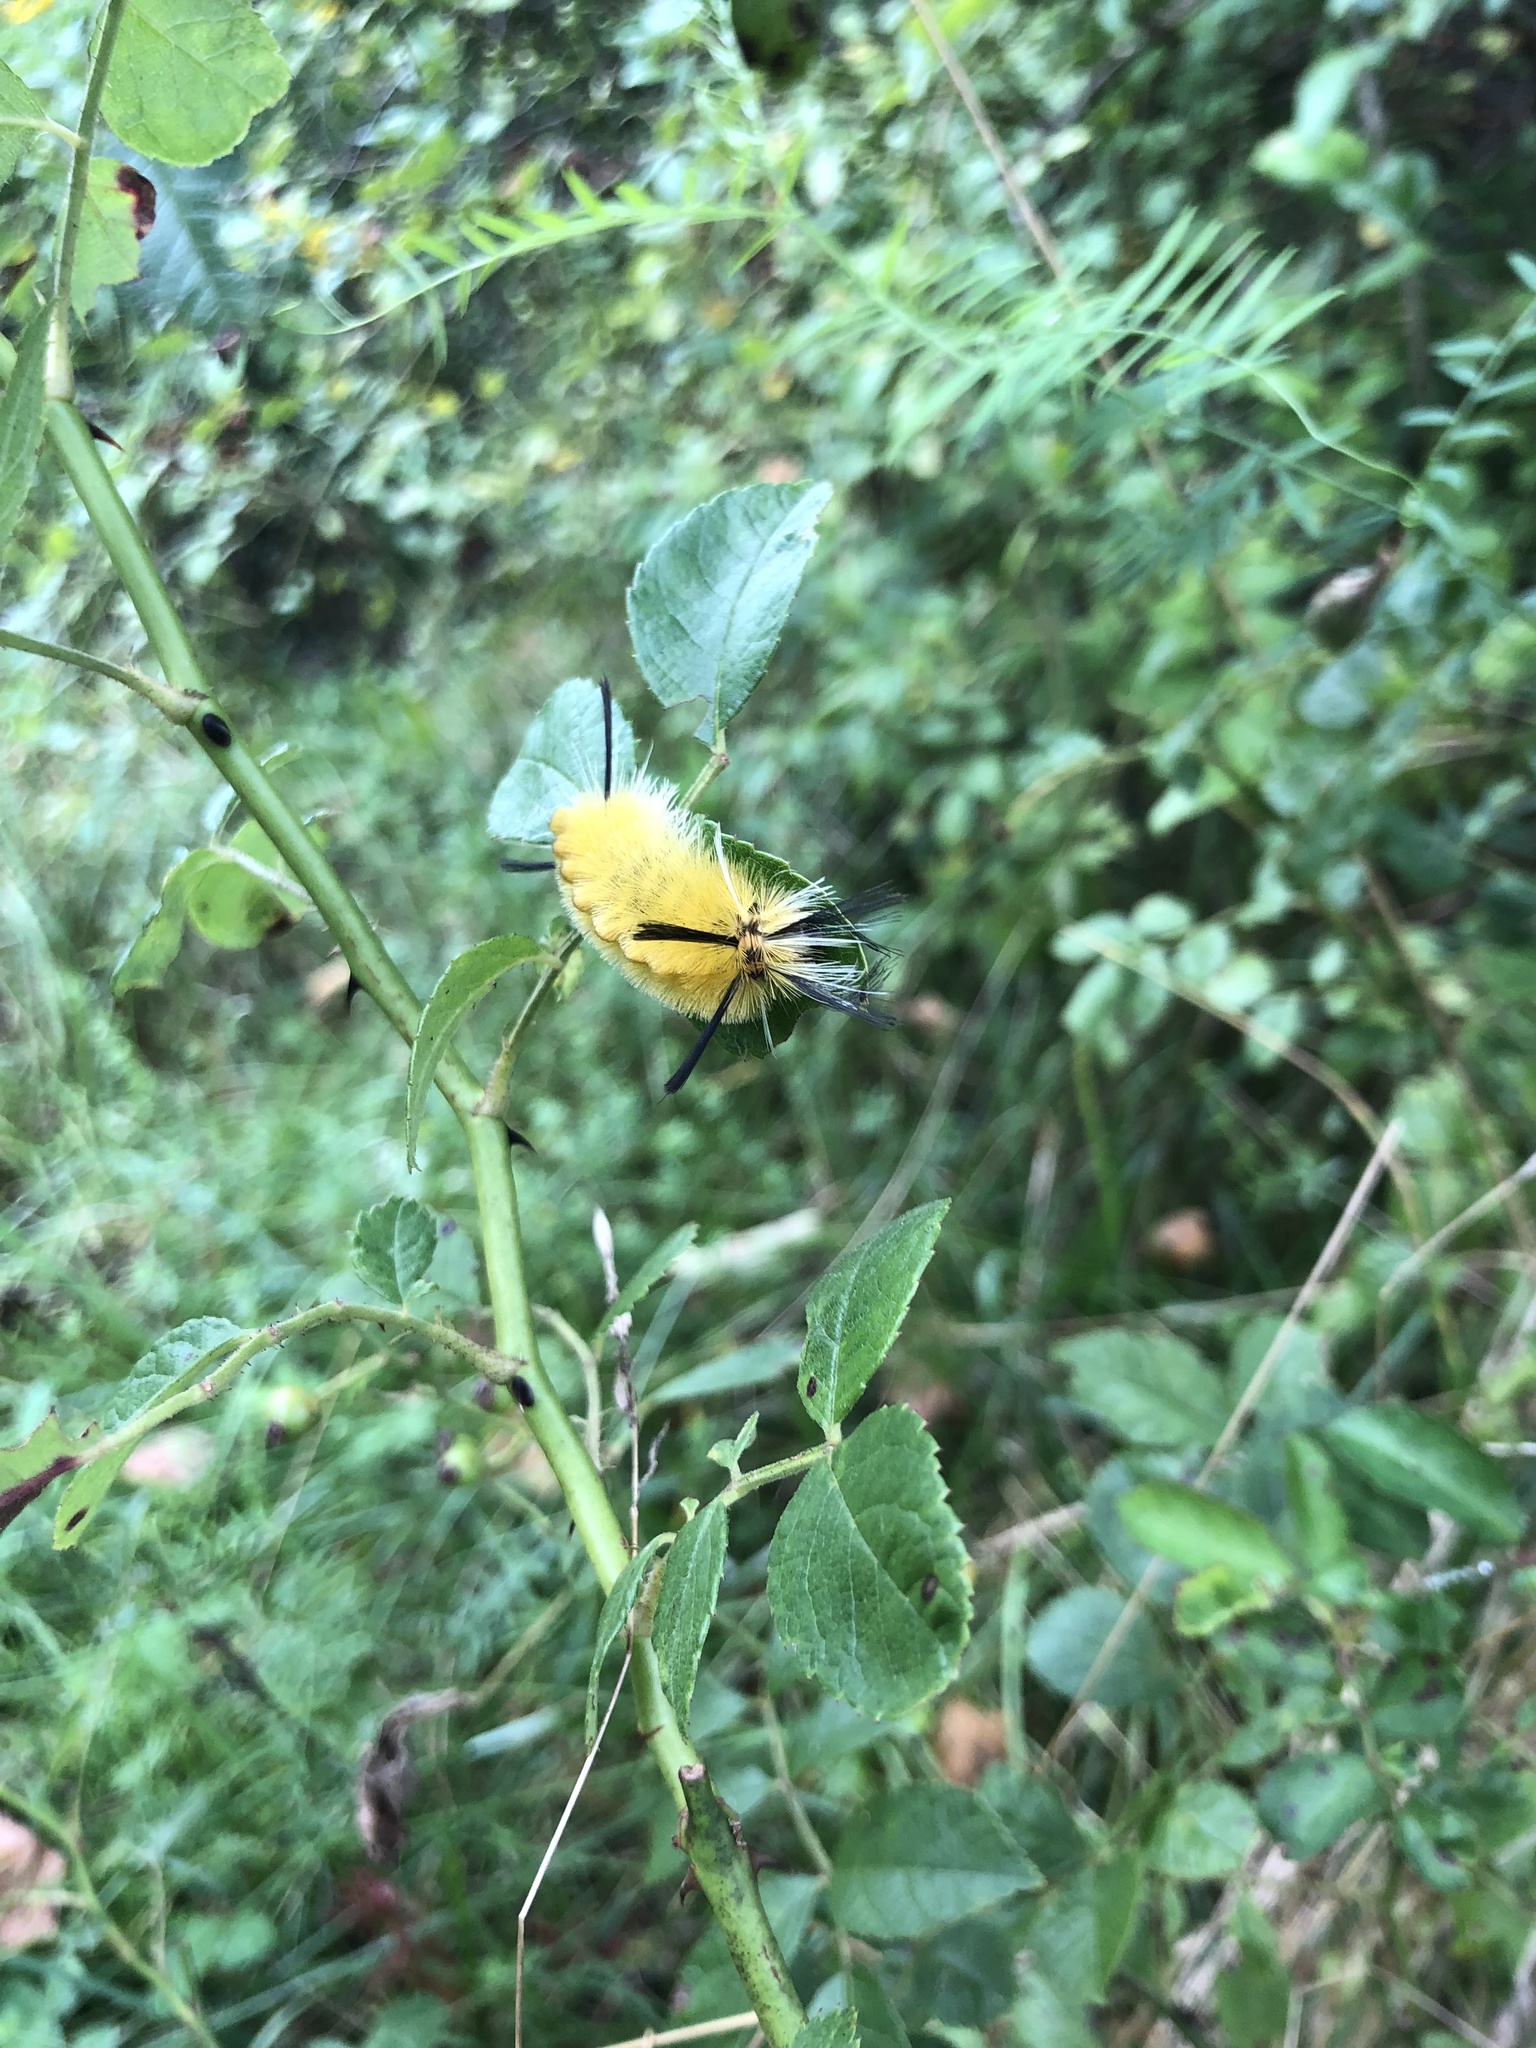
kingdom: Animalia
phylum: Arthropoda
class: Insecta
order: Lepidoptera
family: Erebidae
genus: Halysidota
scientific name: Halysidota tessellaris
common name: Banded tussock moth
